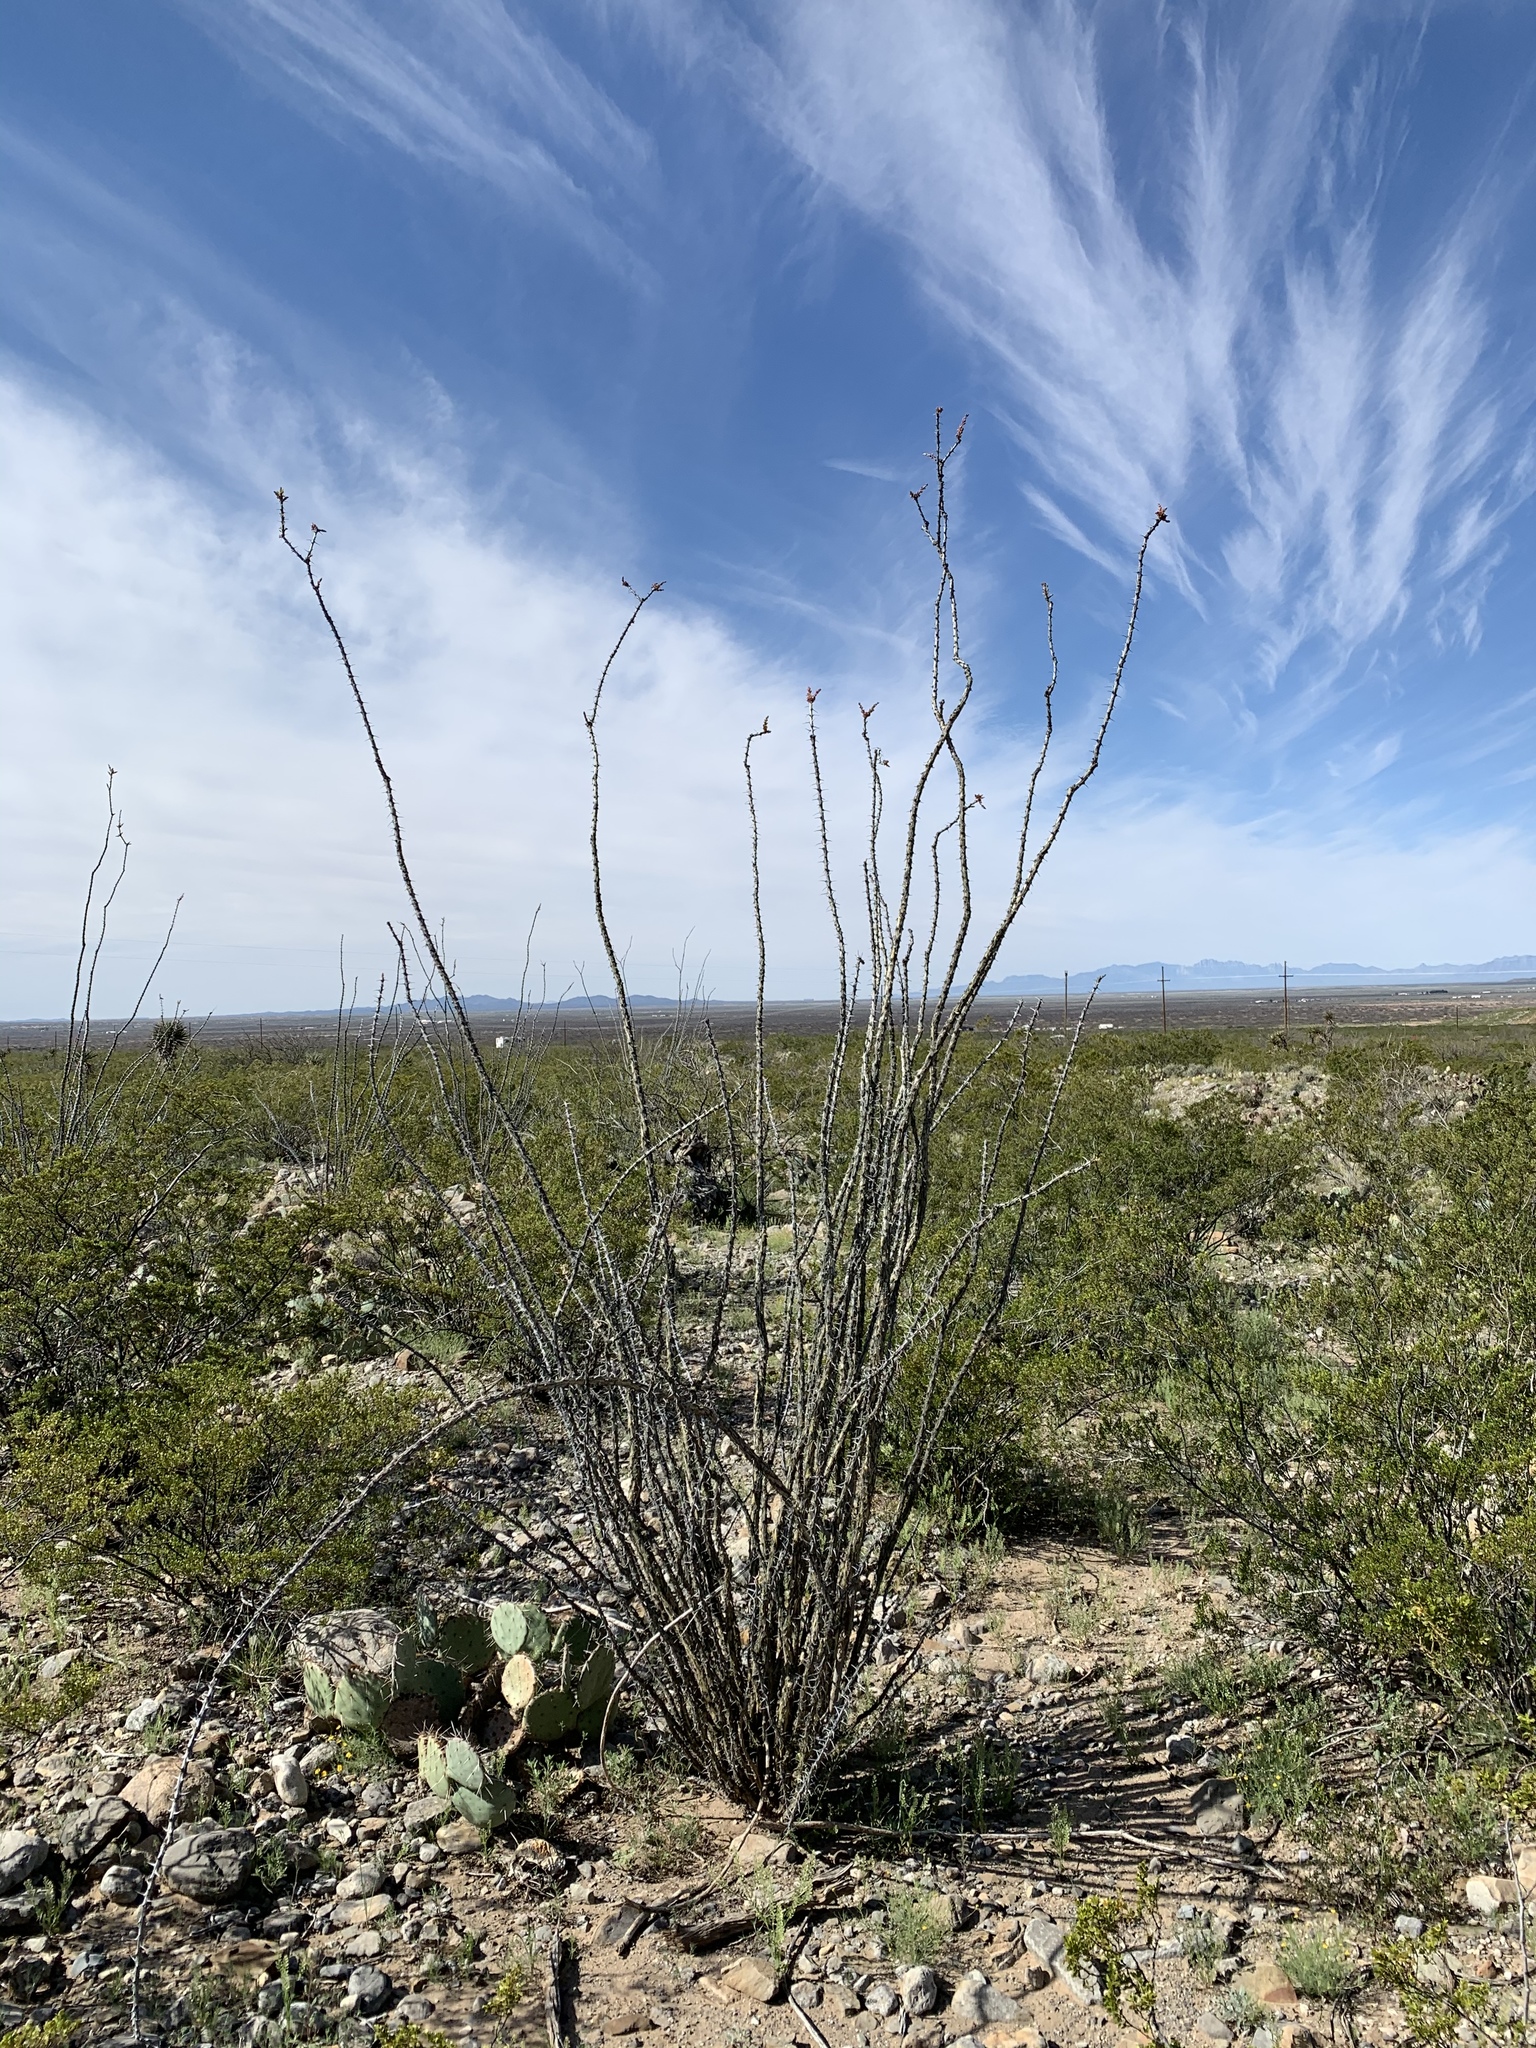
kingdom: Plantae
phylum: Tracheophyta
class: Magnoliopsida
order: Ericales
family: Fouquieriaceae
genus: Fouquieria
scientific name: Fouquieria splendens
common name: Vine-cactus
